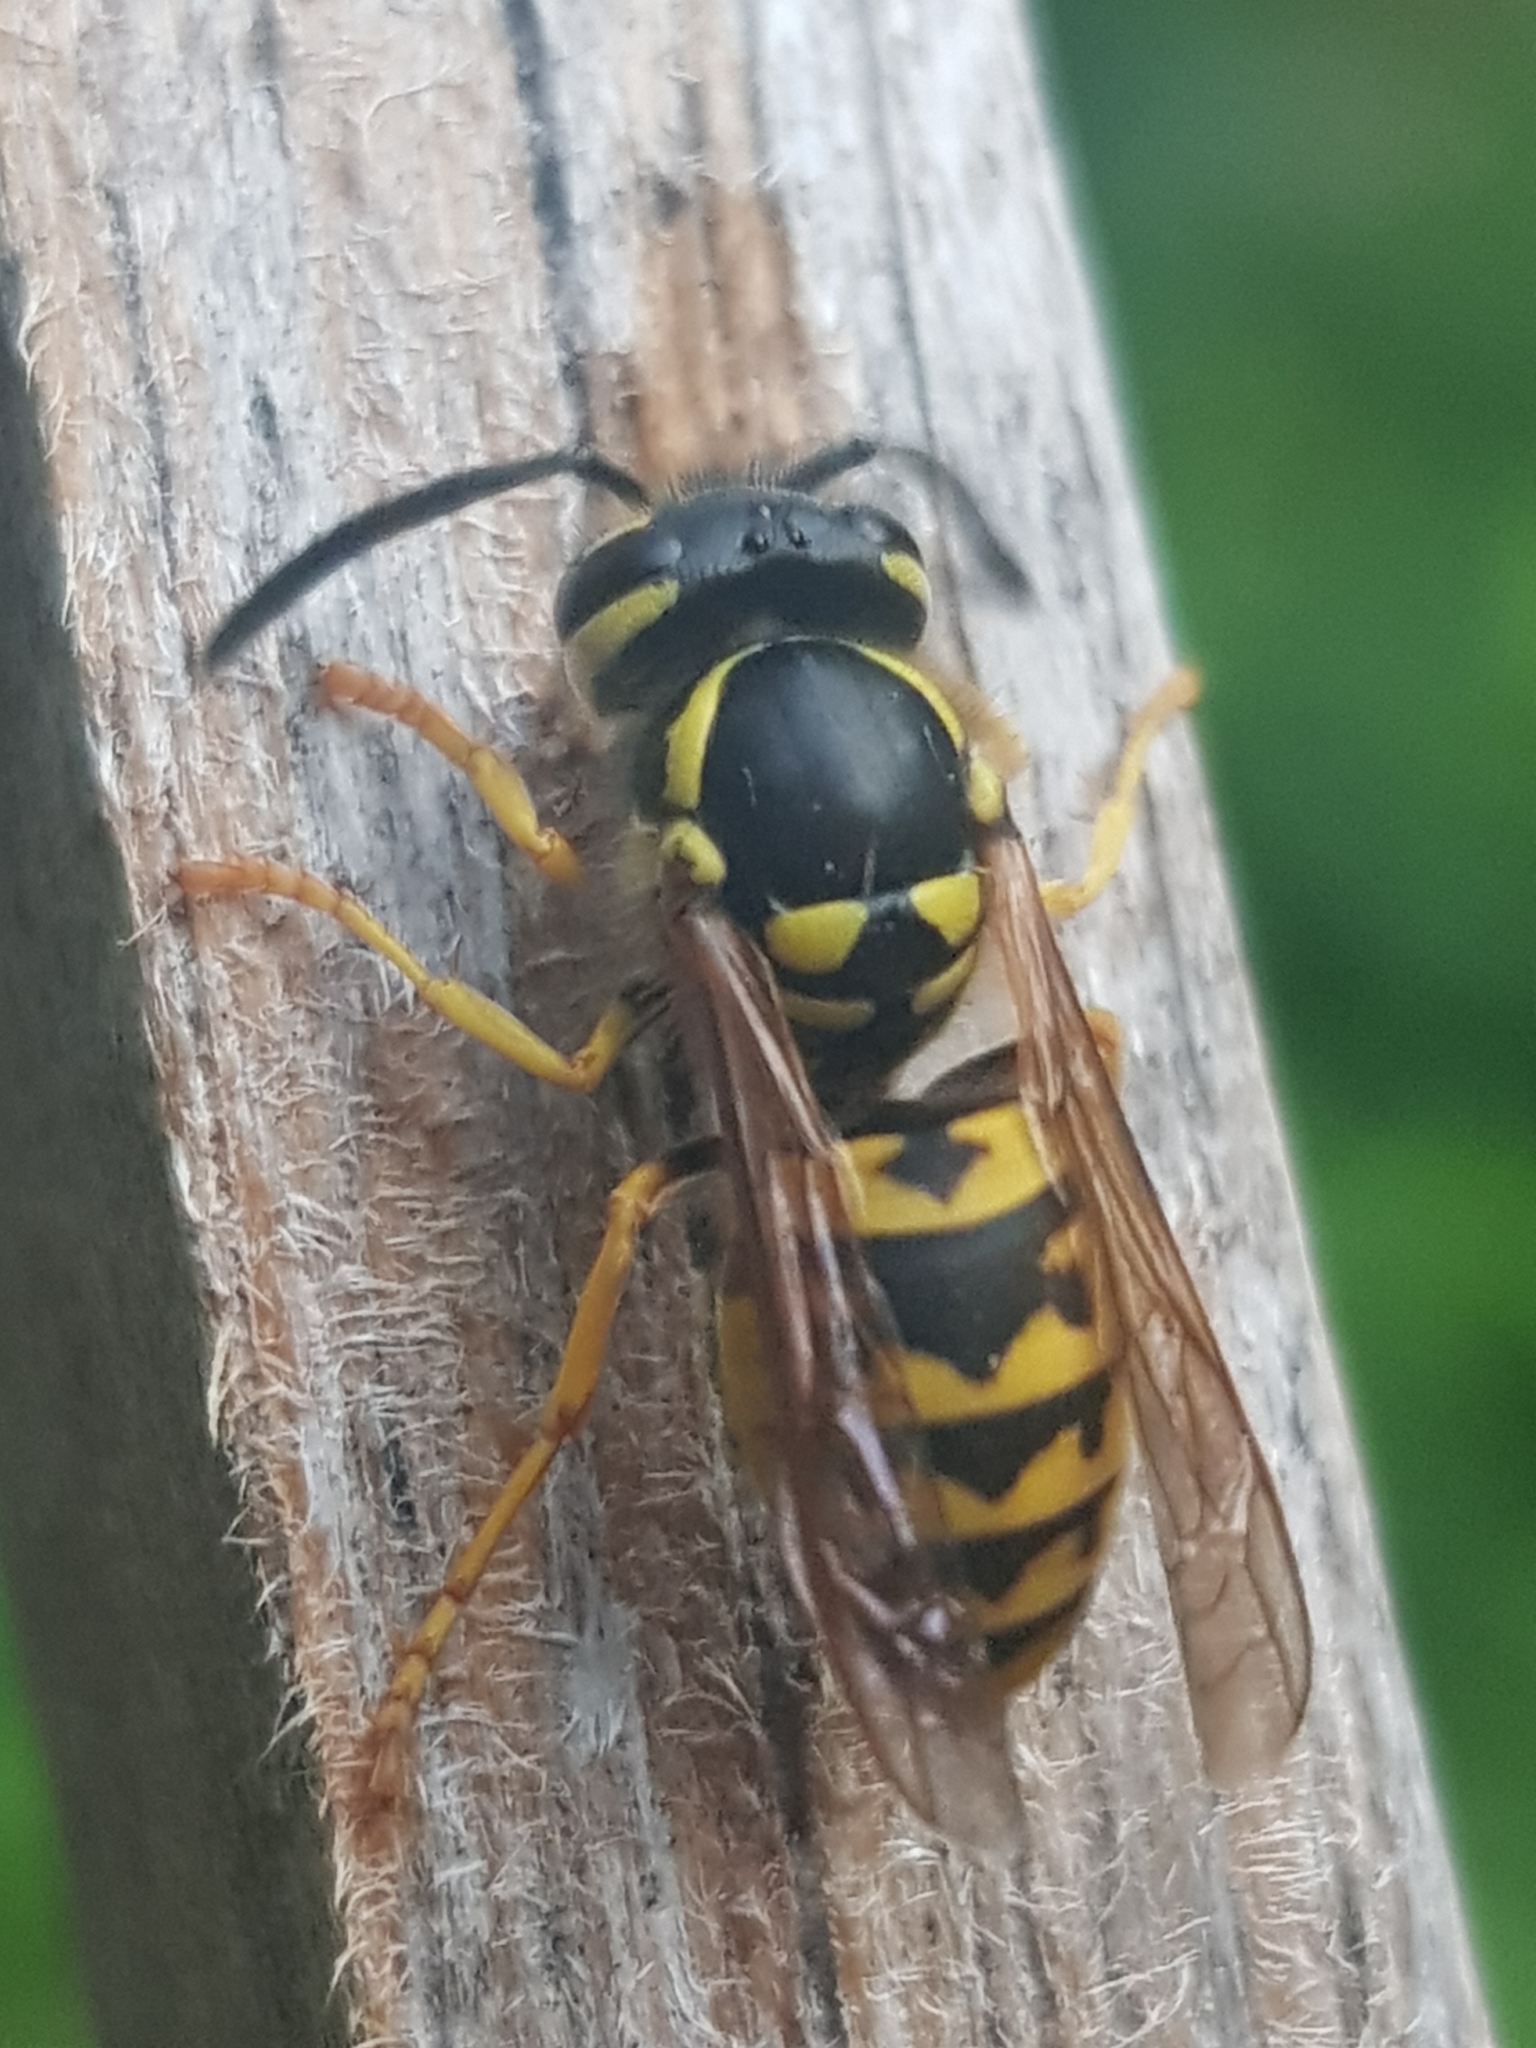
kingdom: Animalia
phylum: Arthropoda
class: Insecta
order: Hymenoptera
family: Vespidae
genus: Vespula
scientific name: Vespula germanica
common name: German wasp
